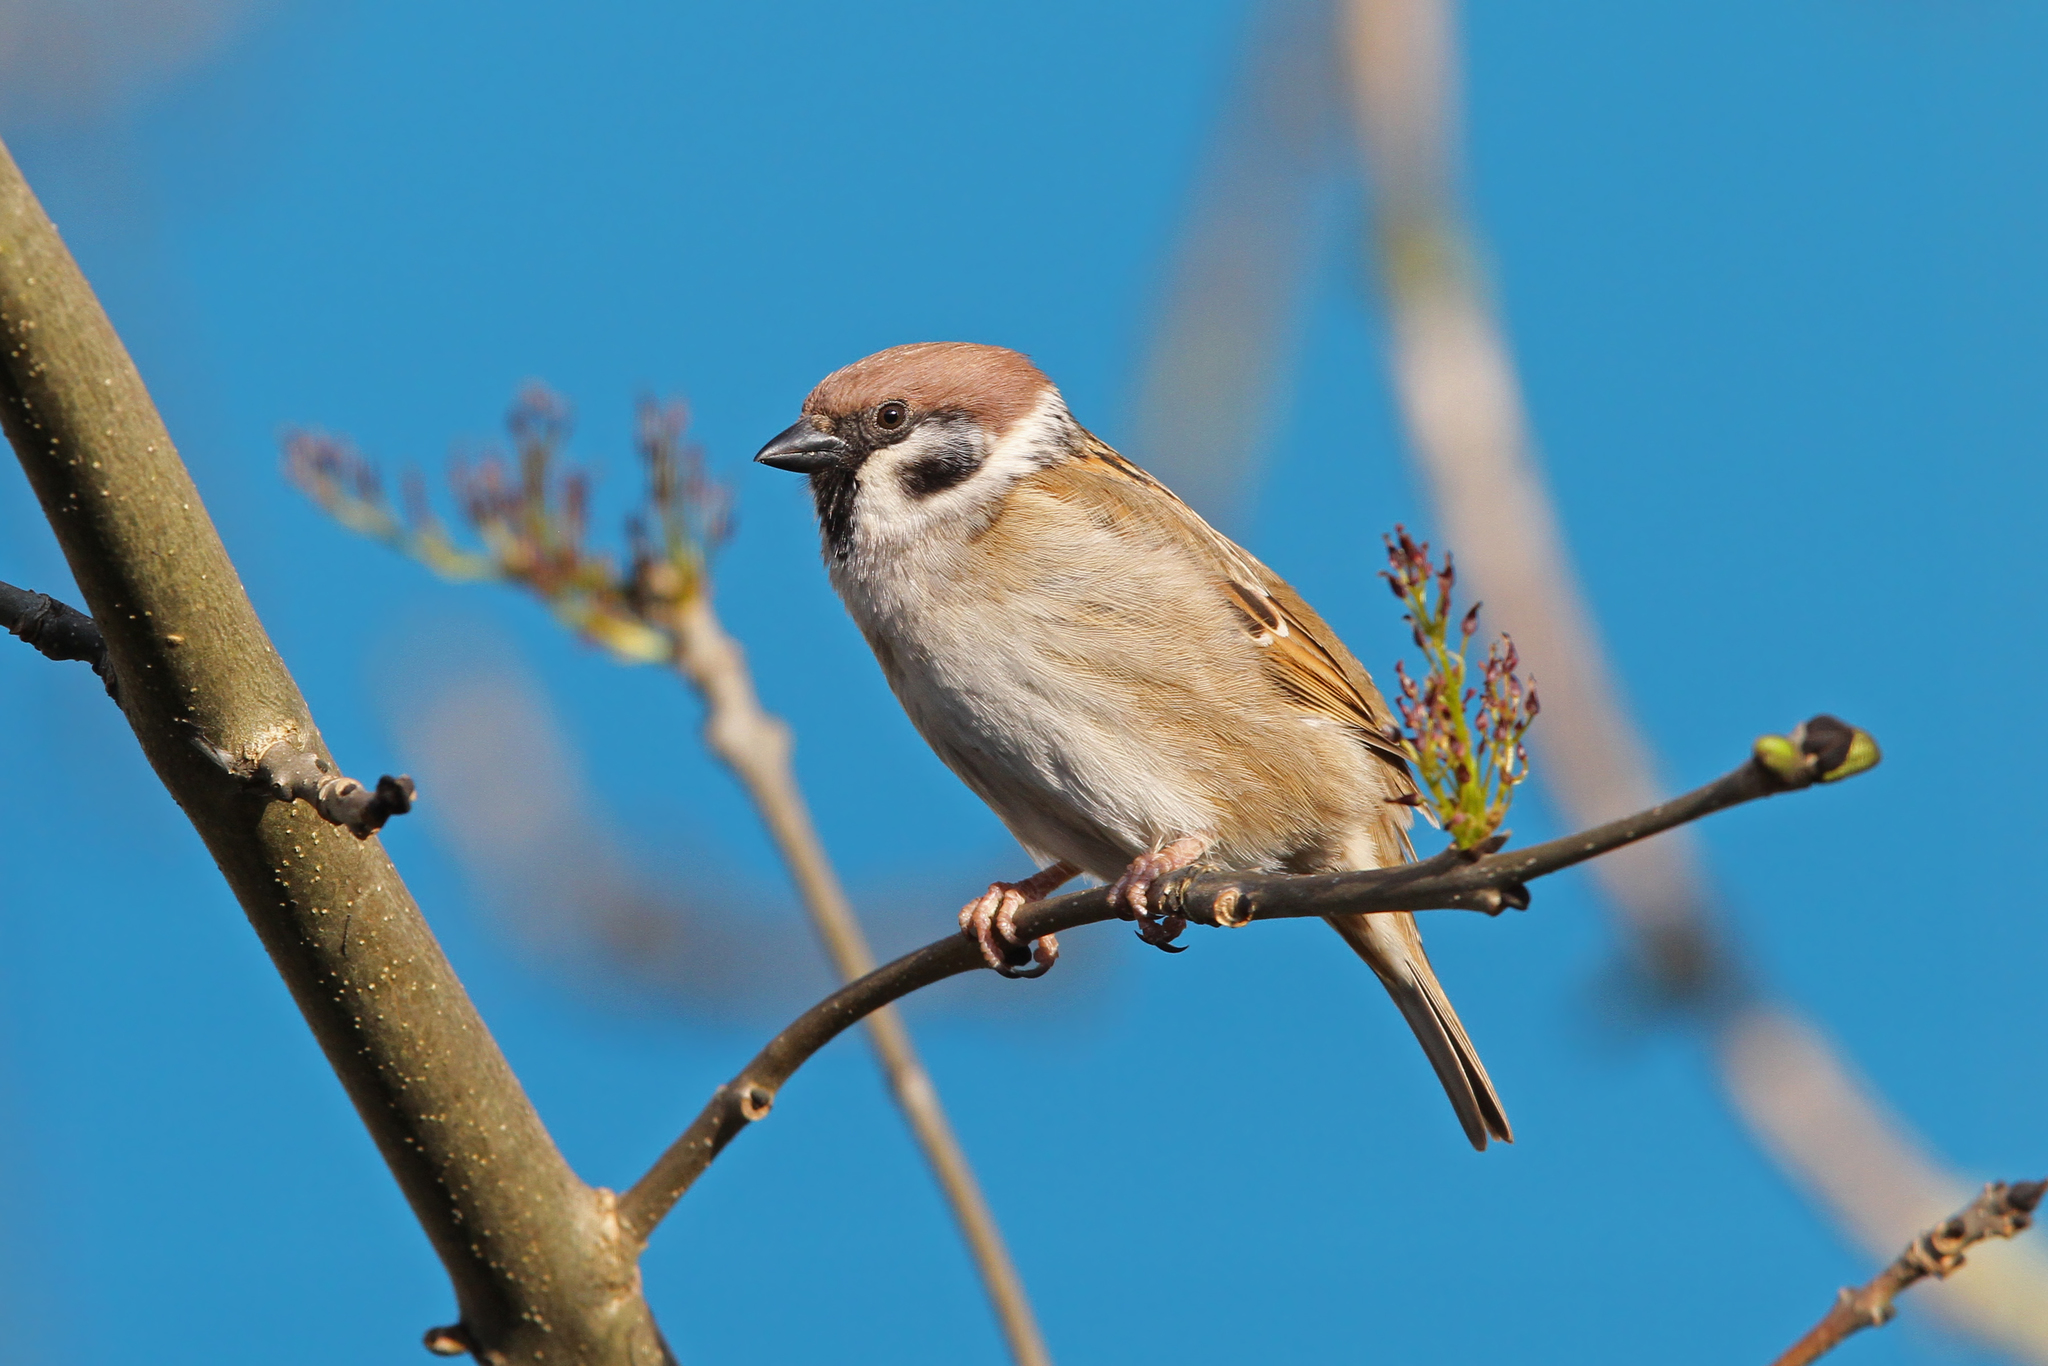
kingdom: Animalia
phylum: Chordata
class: Aves
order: Passeriformes
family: Passeridae
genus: Passer
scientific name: Passer montanus
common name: Eurasian tree sparrow
